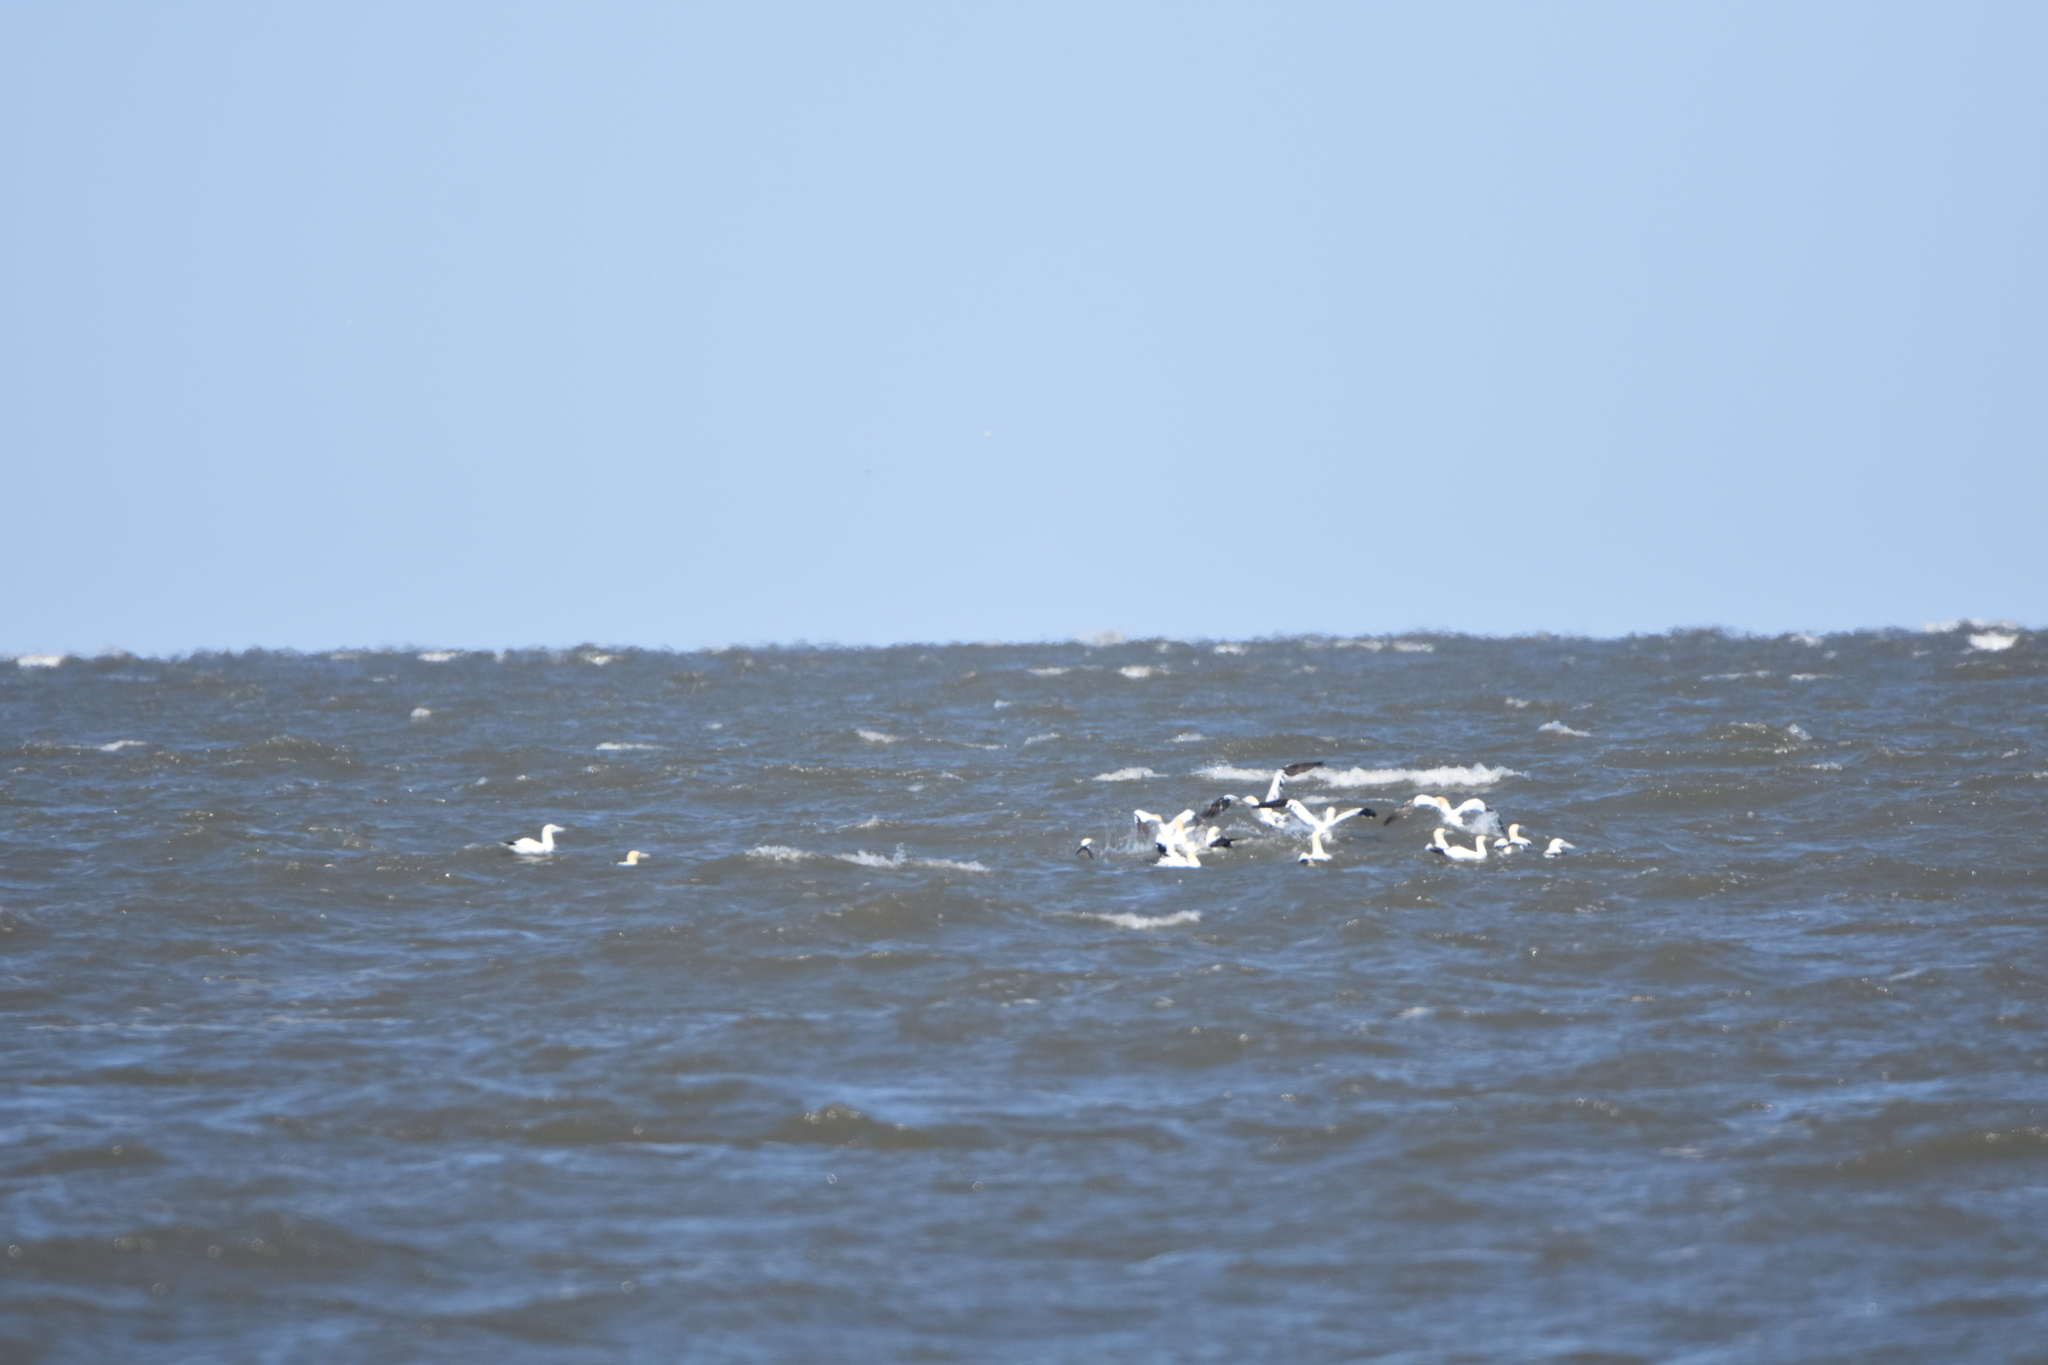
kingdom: Animalia
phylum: Chordata
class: Aves
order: Suliformes
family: Sulidae
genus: Morus
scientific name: Morus bassanus
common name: Northern gannet
